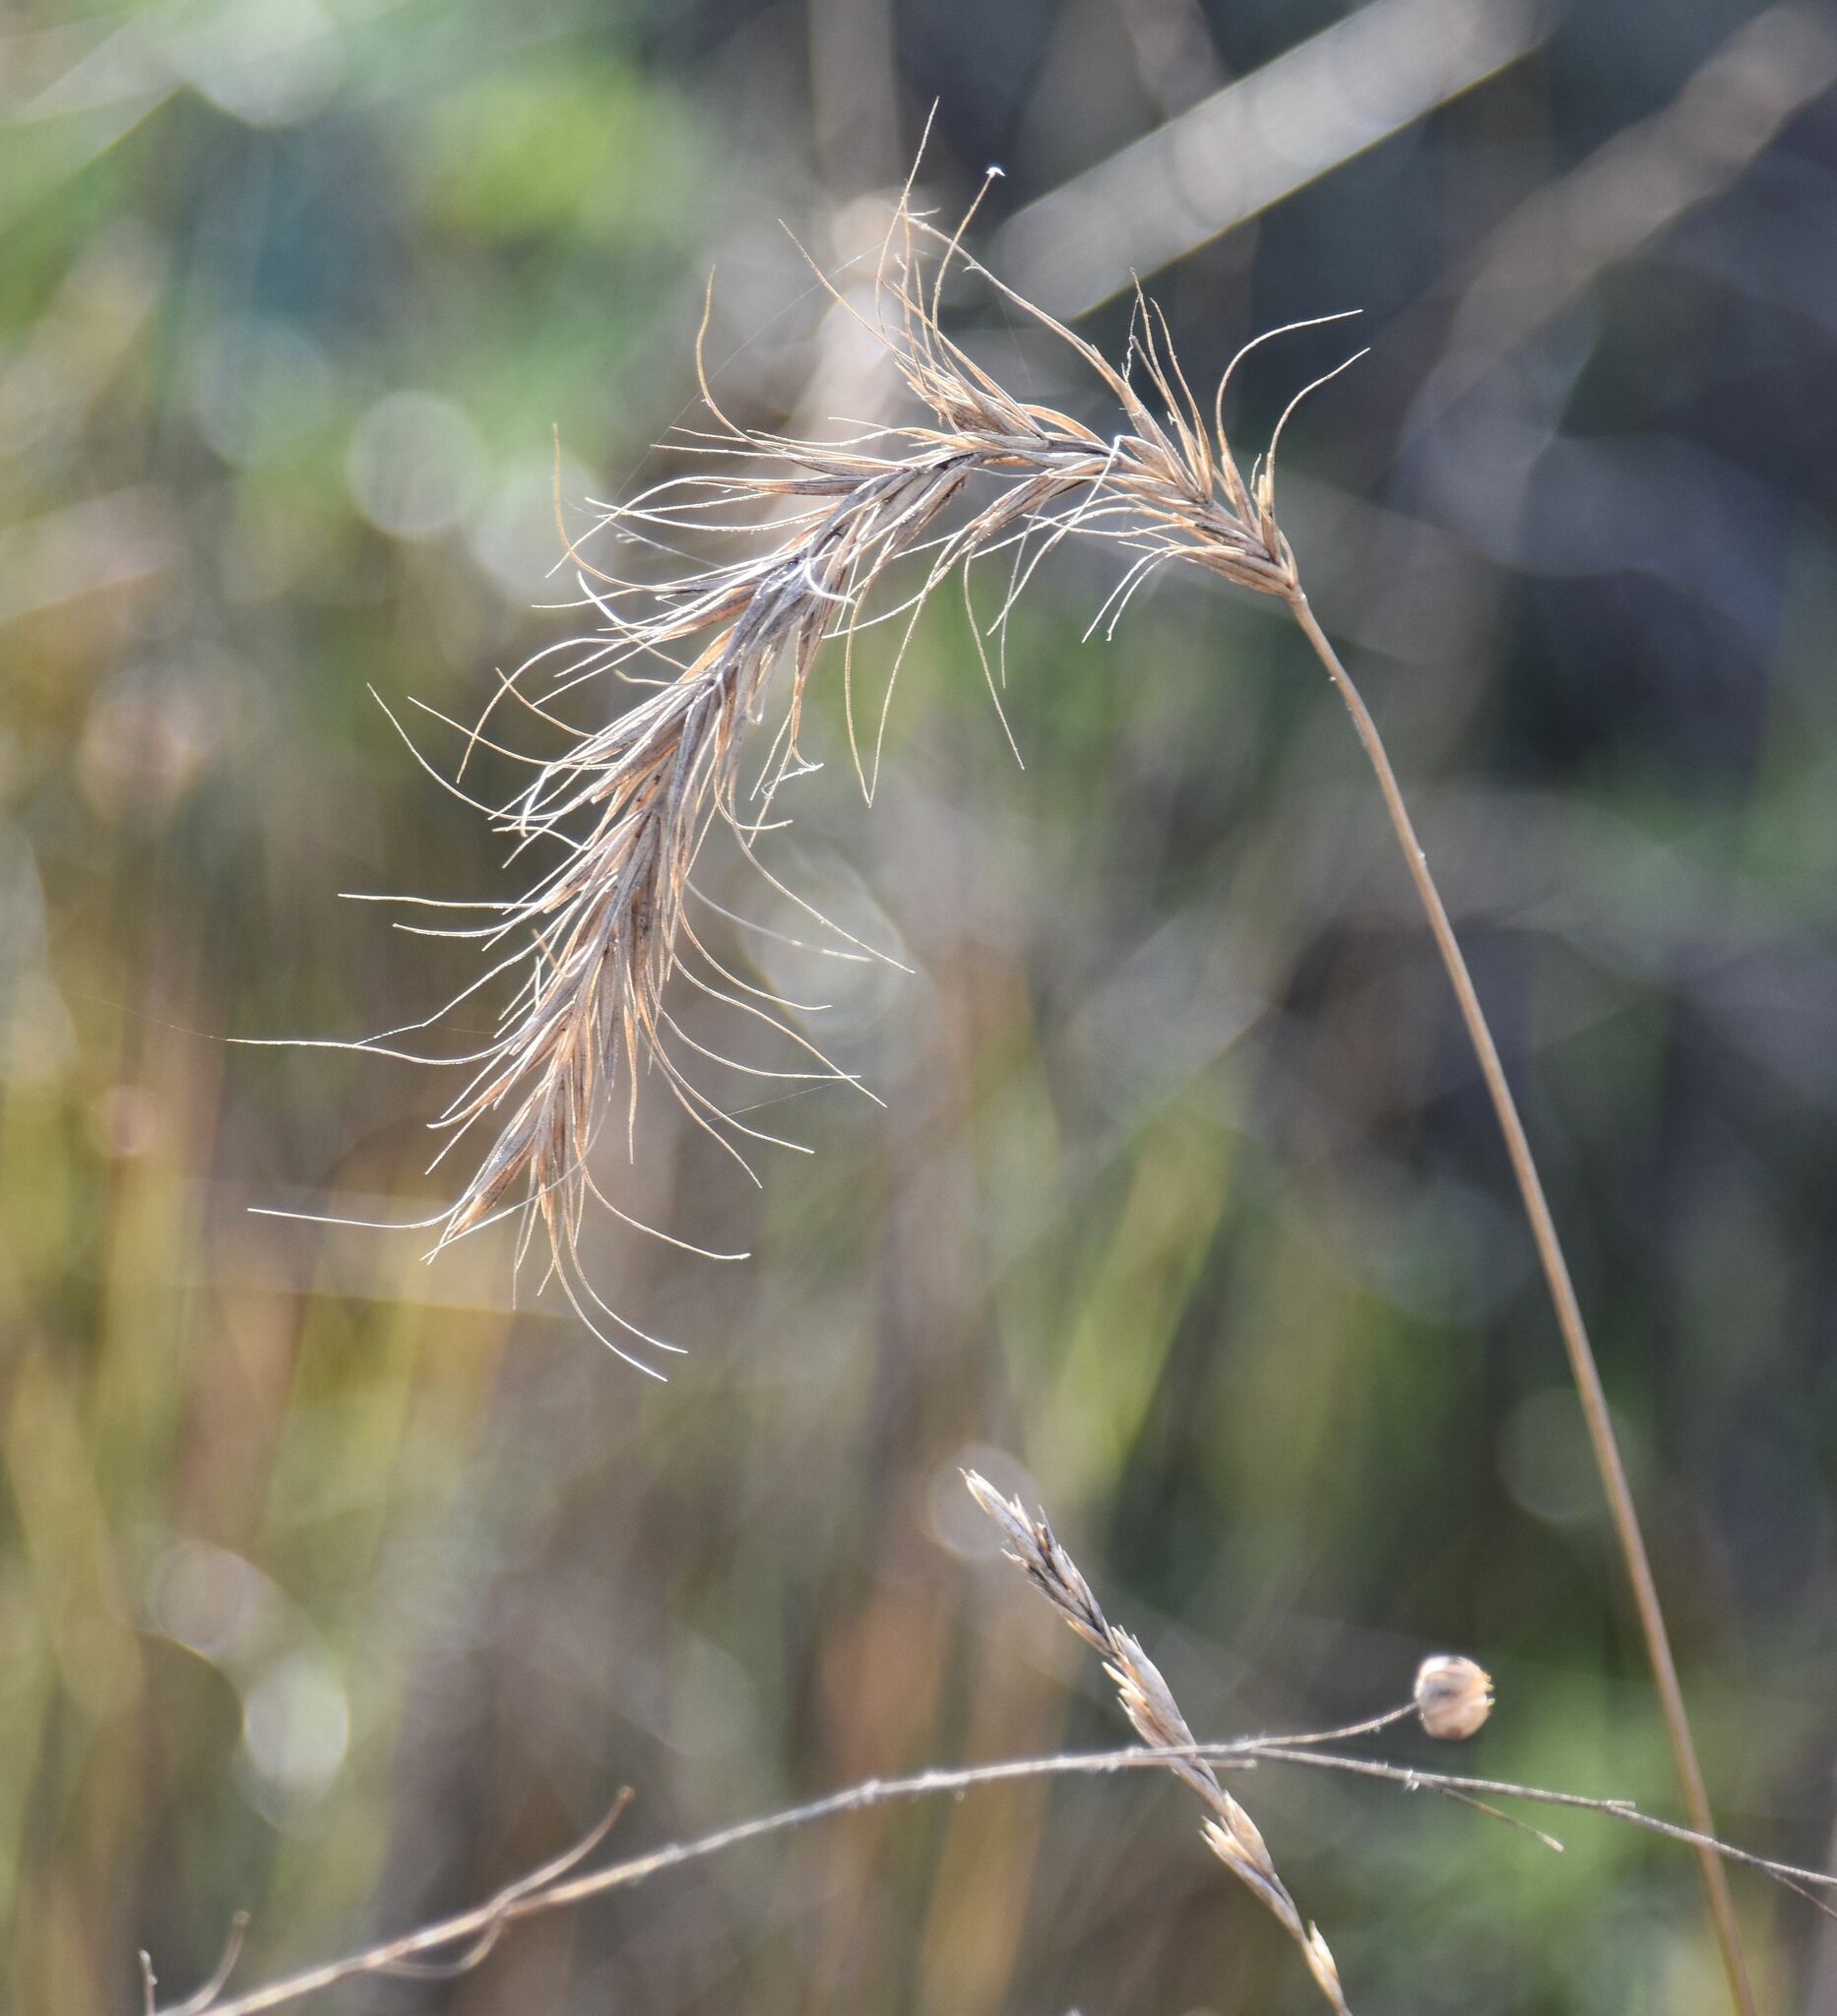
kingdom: Plantae
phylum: Tracheophyta
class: Liliopsida
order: Poales
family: Poaceae
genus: Elymus
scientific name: Elymus canadensis
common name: Canada wild rye
